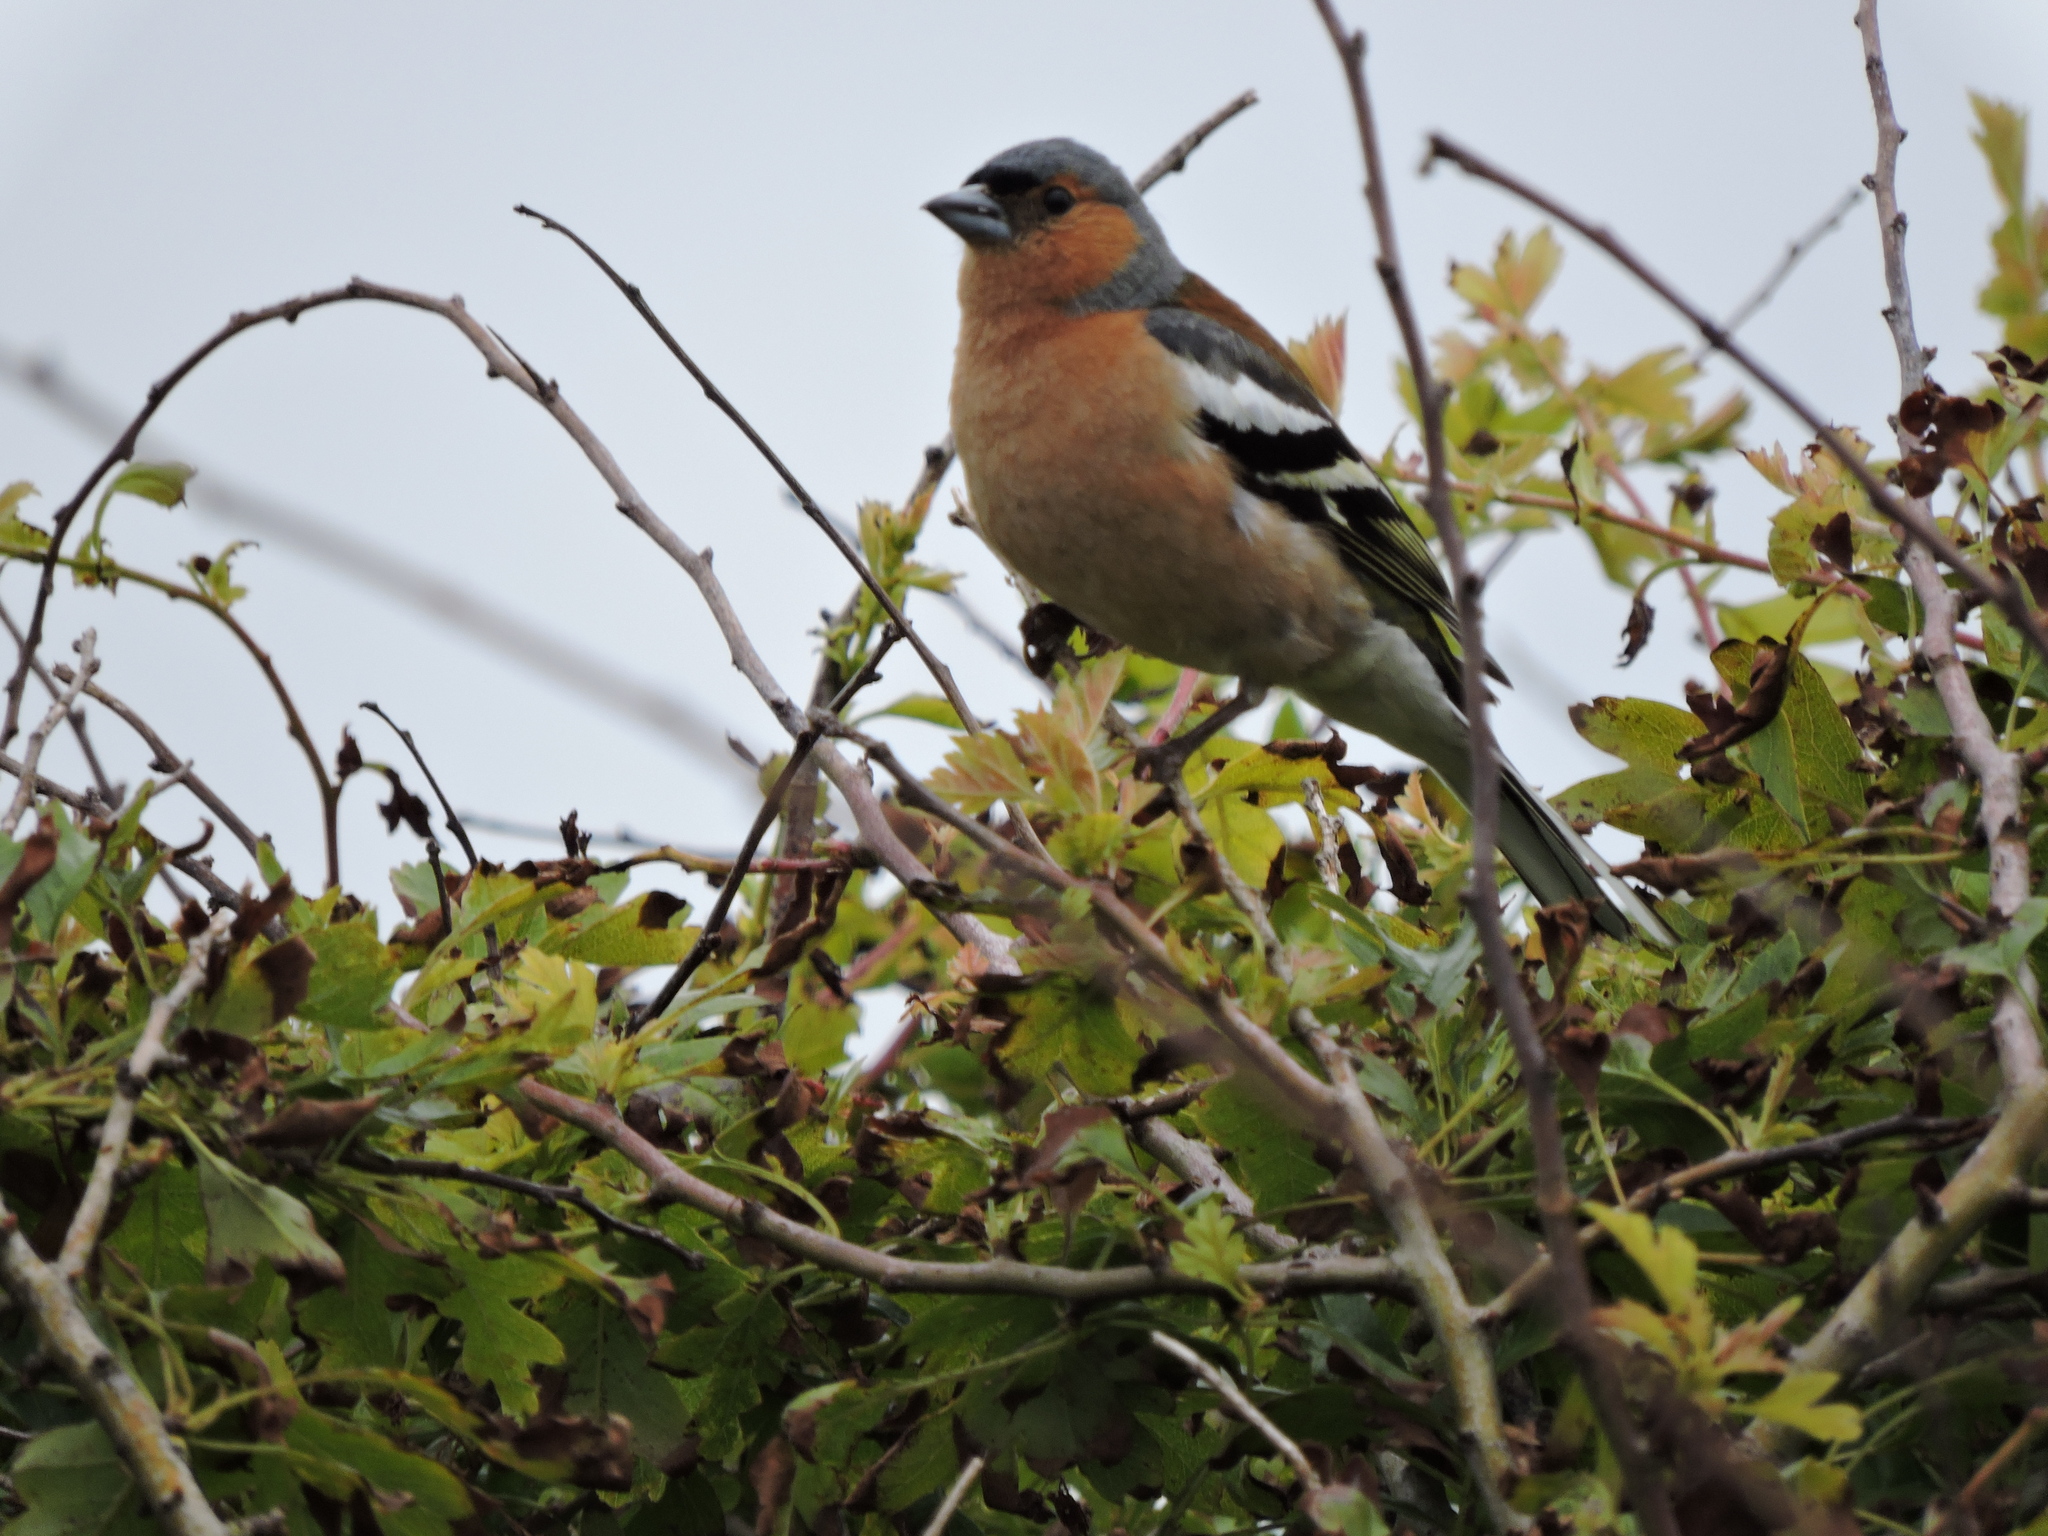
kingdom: Animalia
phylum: Chordata
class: Aves
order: Passeriformes
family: Fringillidae
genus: Fringilla
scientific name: Fringilla coelebs
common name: Common chaffinch
